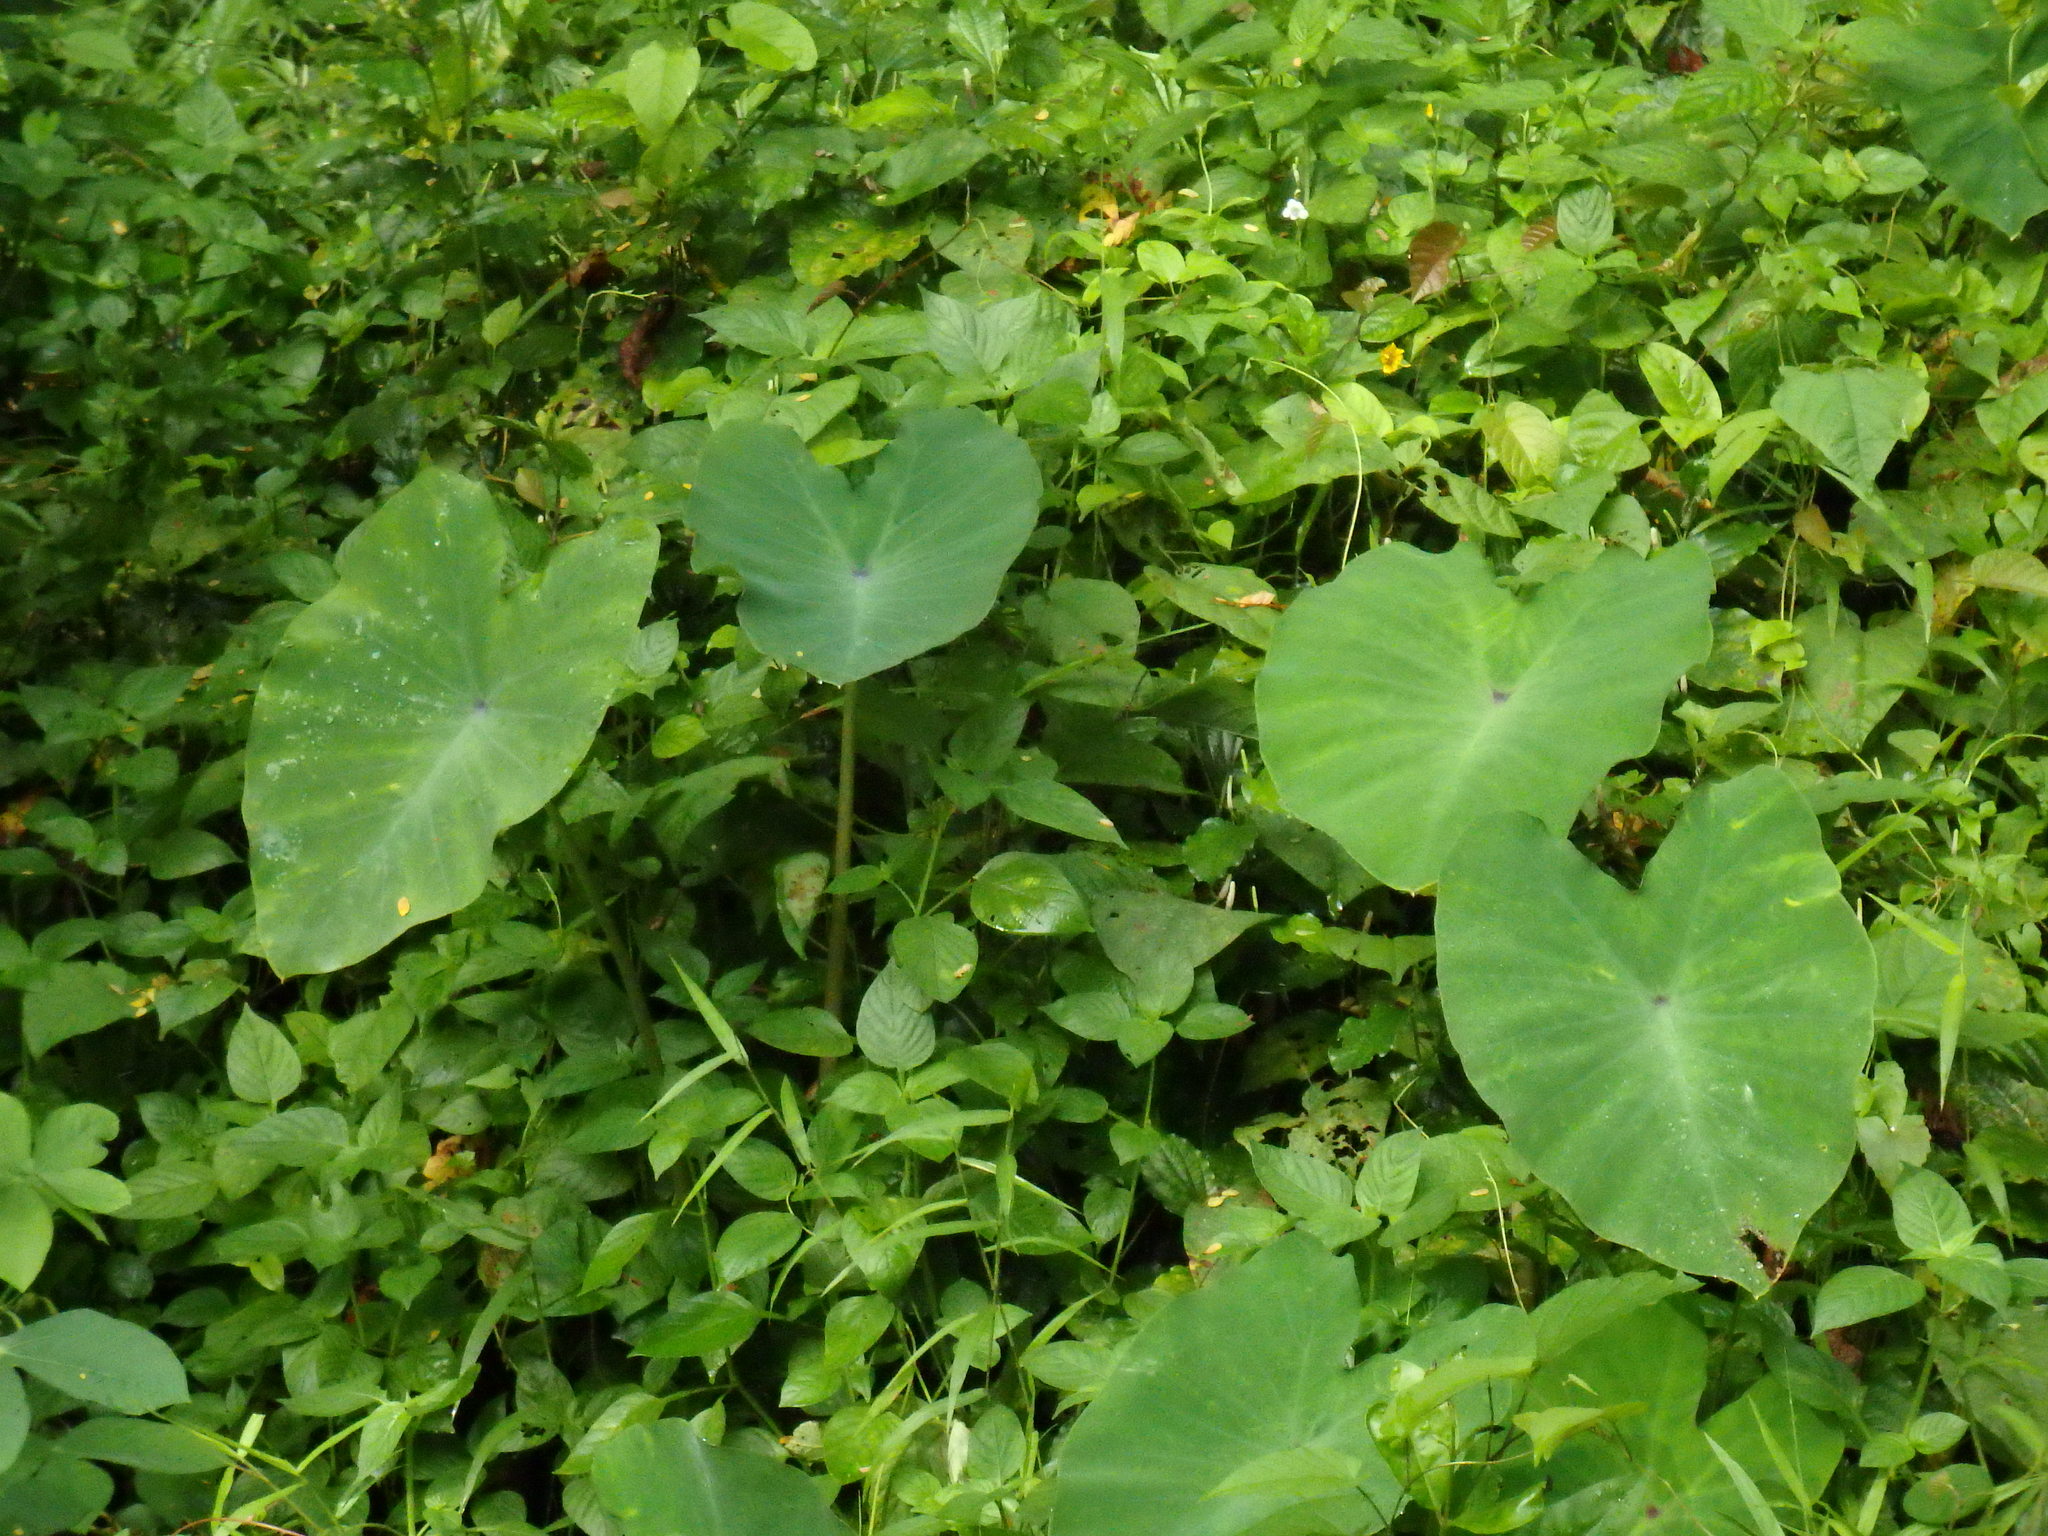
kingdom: Plantae
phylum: Tracheophyta
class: Liliopsida
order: Alismatales
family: Araceae
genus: Colocasia
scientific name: Colocasia esculenta
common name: Taro
